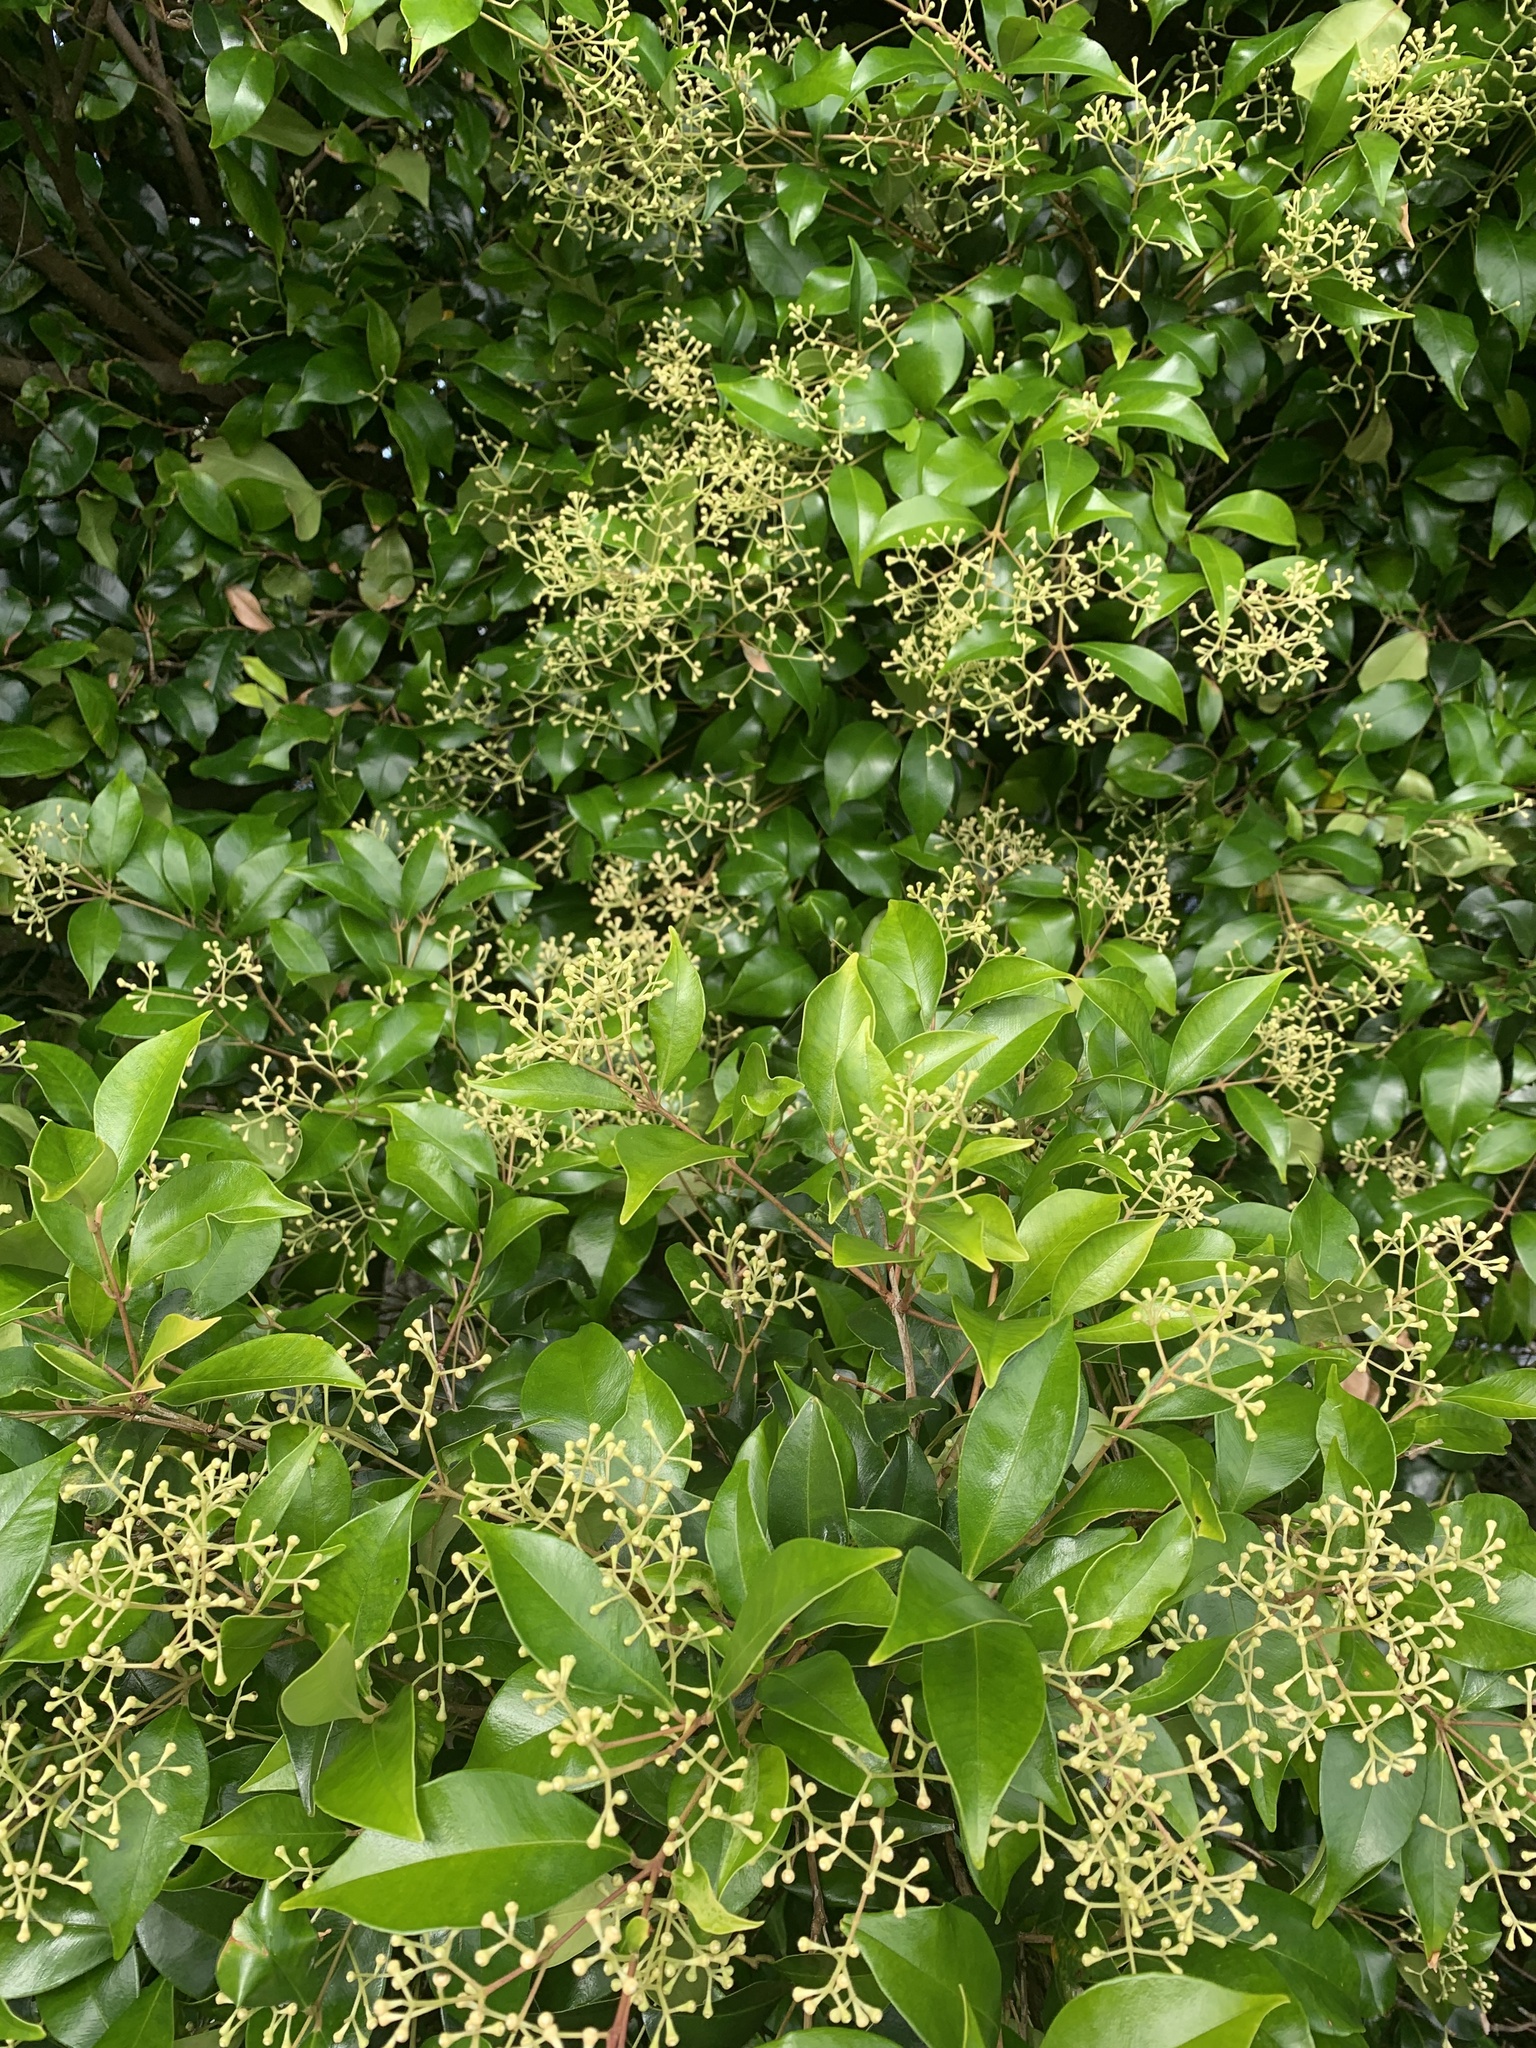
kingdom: Plantae
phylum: Tracheophyta
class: Magnoliopsida
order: Myrtales
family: Myrtaceae
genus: Syzygium
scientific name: Syzygium smithii
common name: Lilly-pilly
